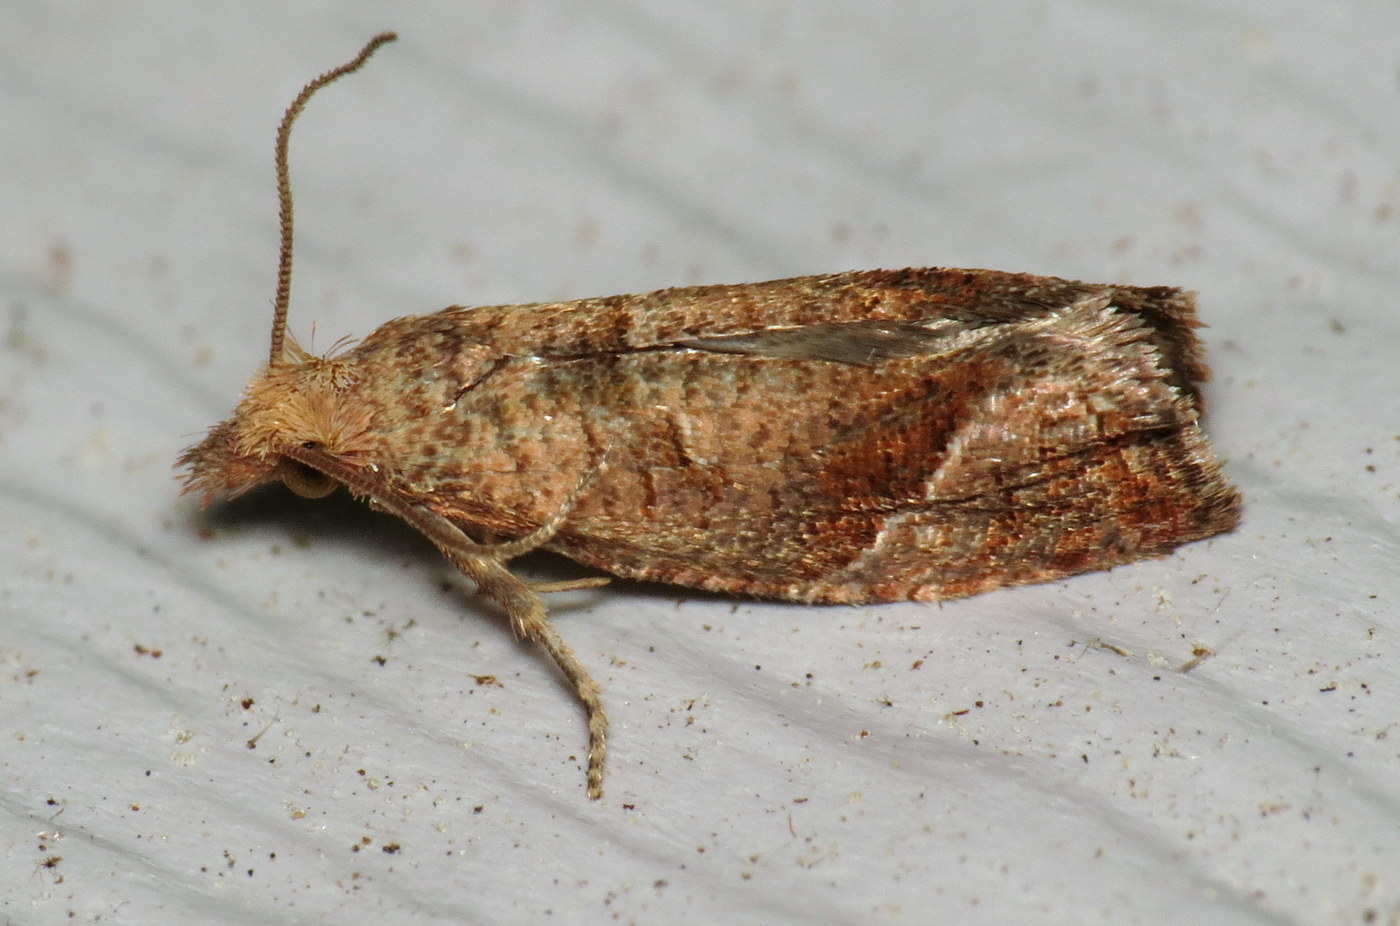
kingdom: Animalia
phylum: Arthropoda
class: Insecta
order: Lepidoptera
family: Tortricidae
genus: Pelochrista
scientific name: Pelochrista derelicta
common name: Derelict pelochrista moth
